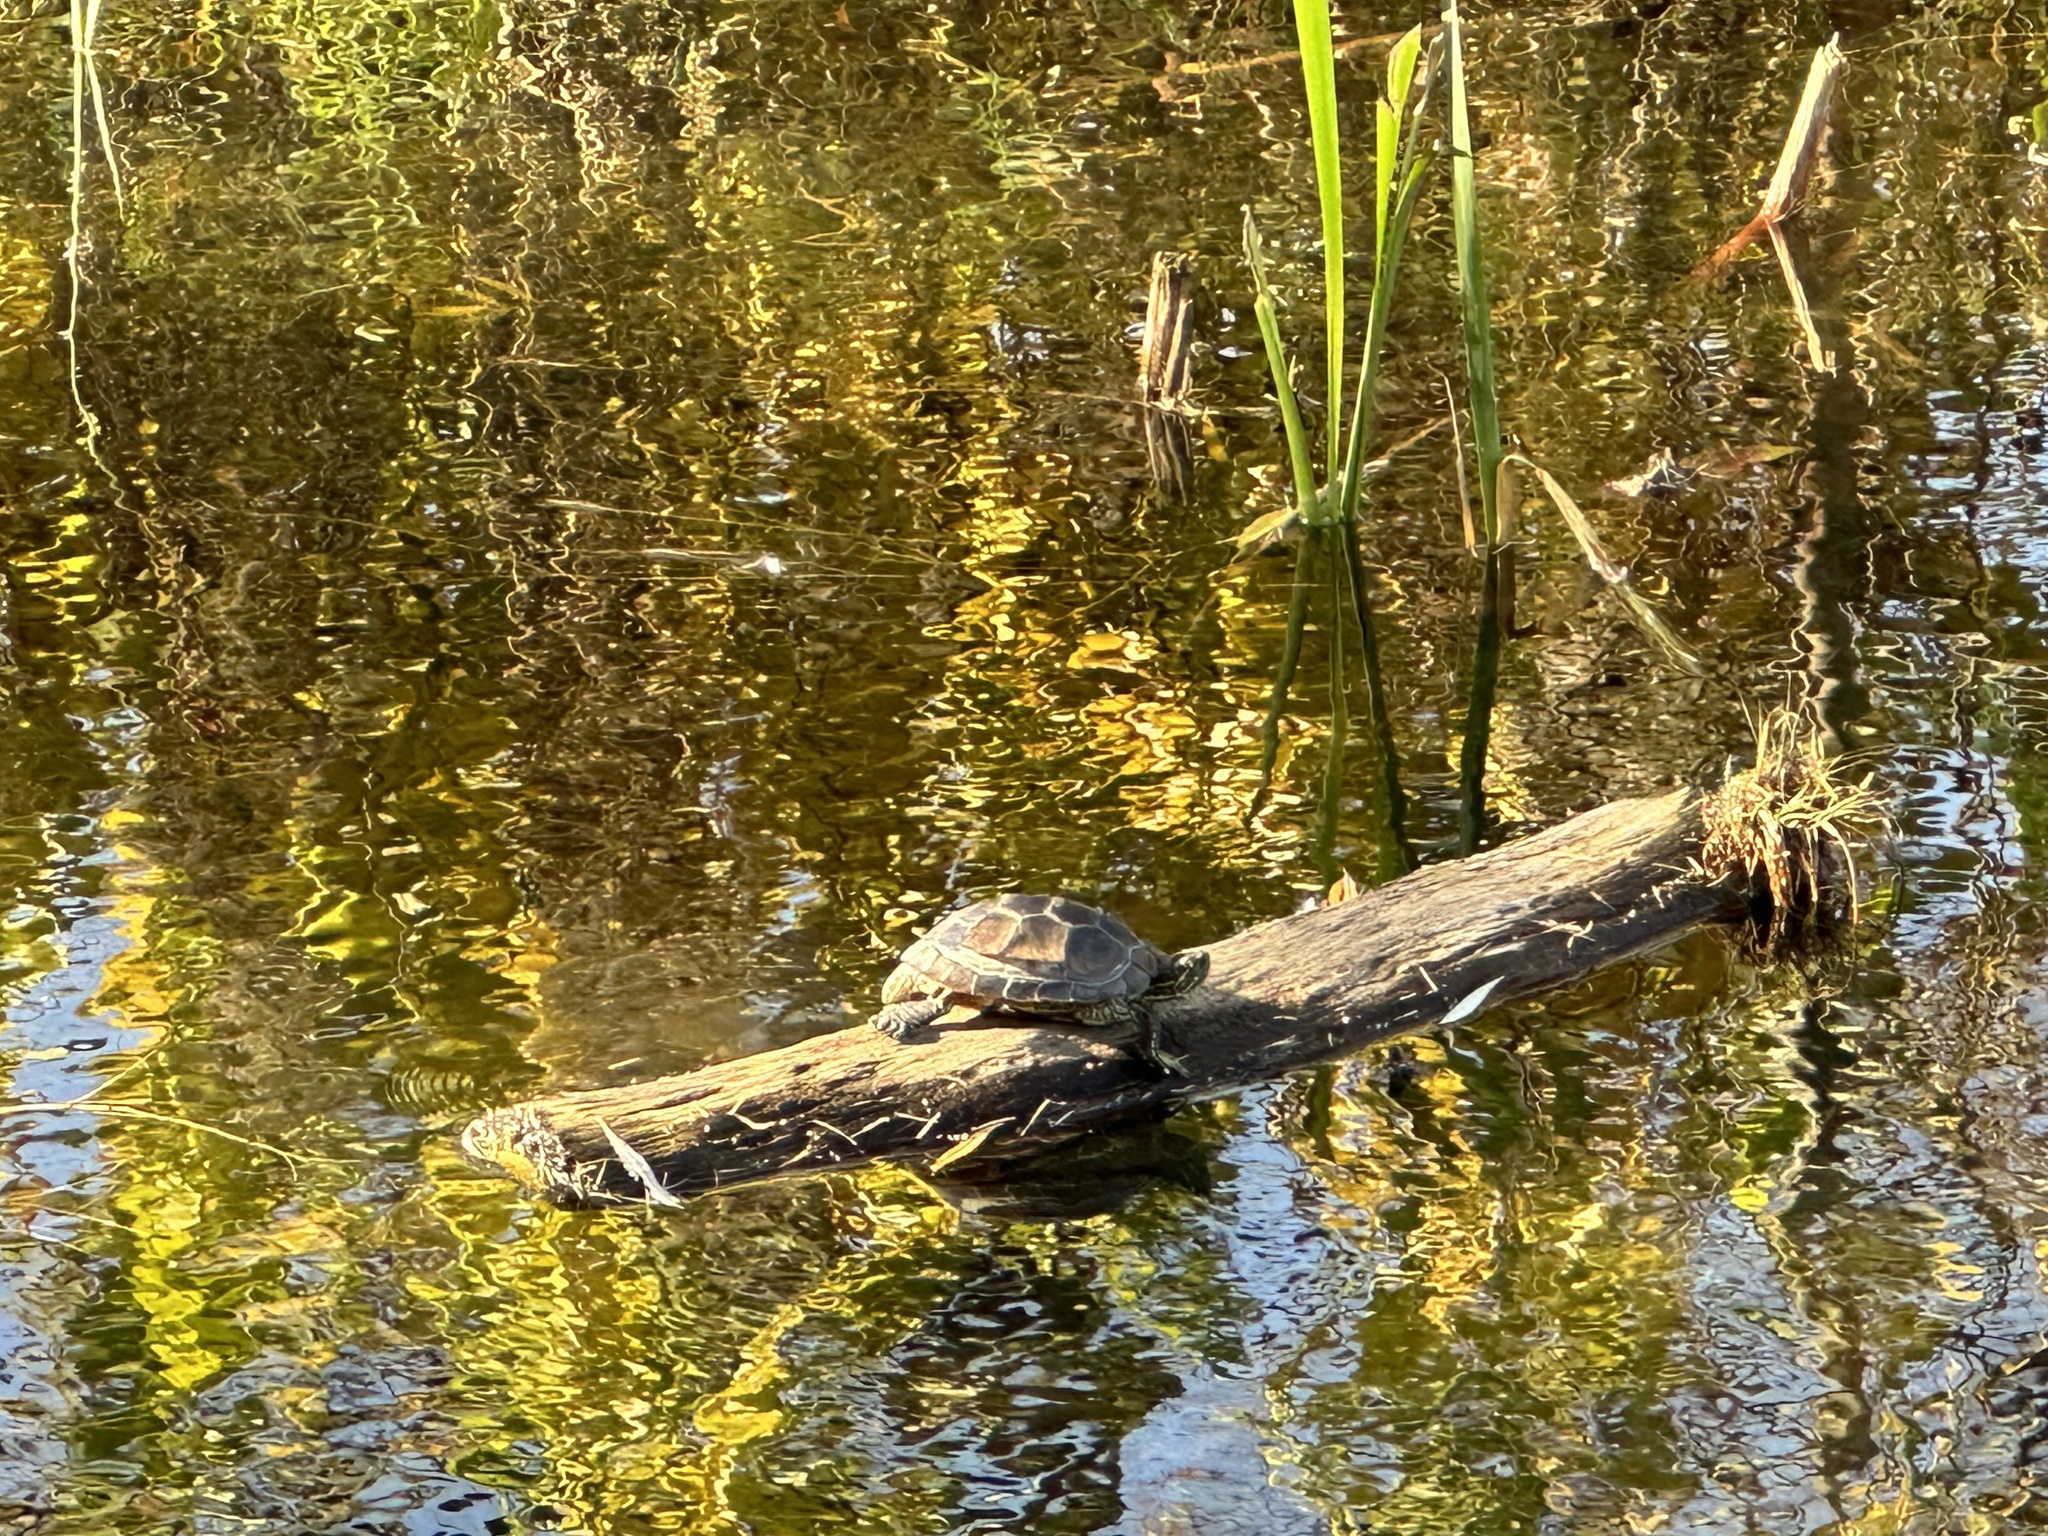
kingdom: Animalia
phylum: Chordata
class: Testudines
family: Emydidae
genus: Chrysemys
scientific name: Chrysemys picta
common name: Painted turtle
